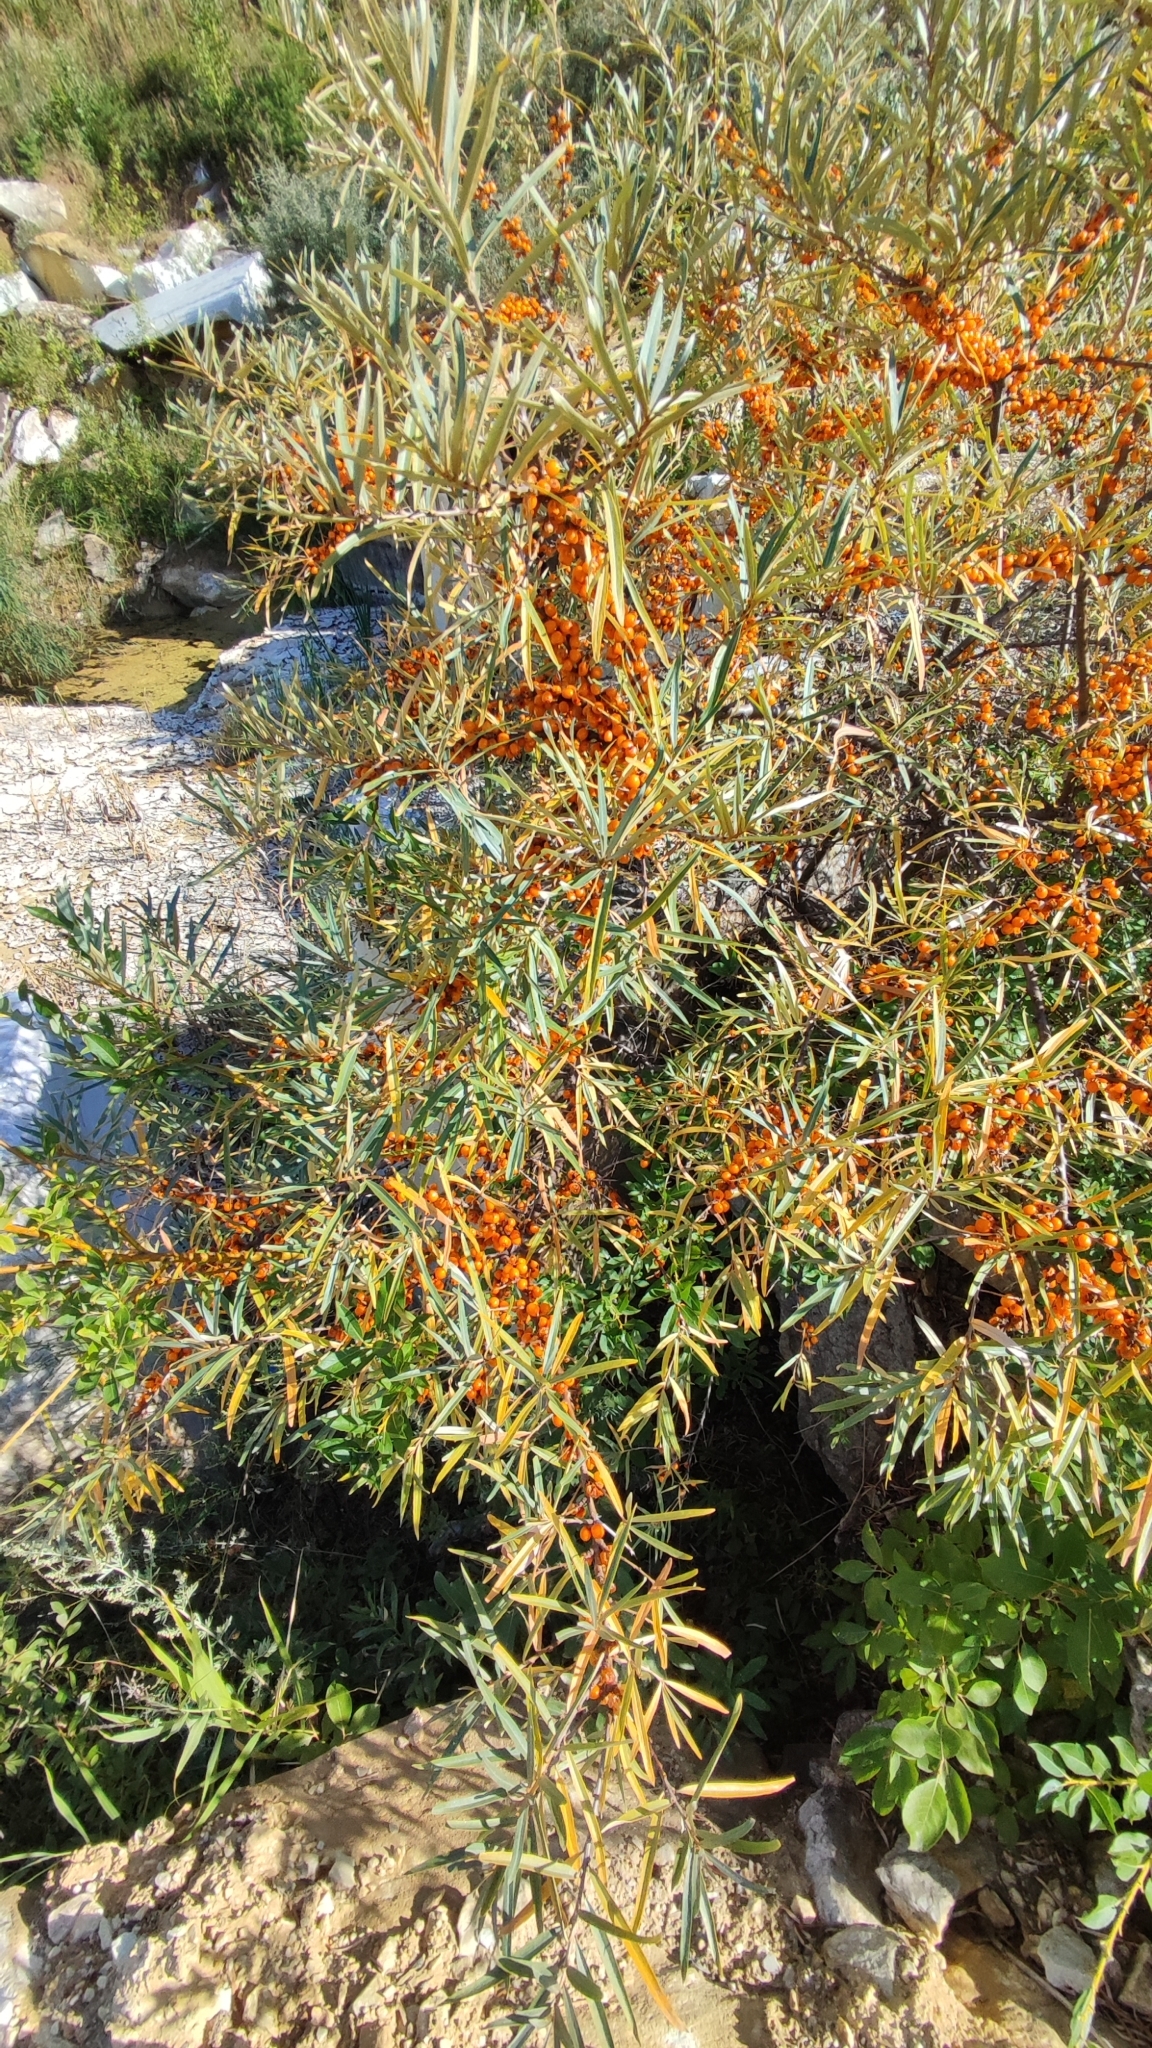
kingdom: Plantae
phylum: Tracheophyta
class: Magnoliopsida
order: Rosales
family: Elaeagnaceae
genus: Hippophae
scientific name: Hippophae rhamnoides
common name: Sea-buckthorn
